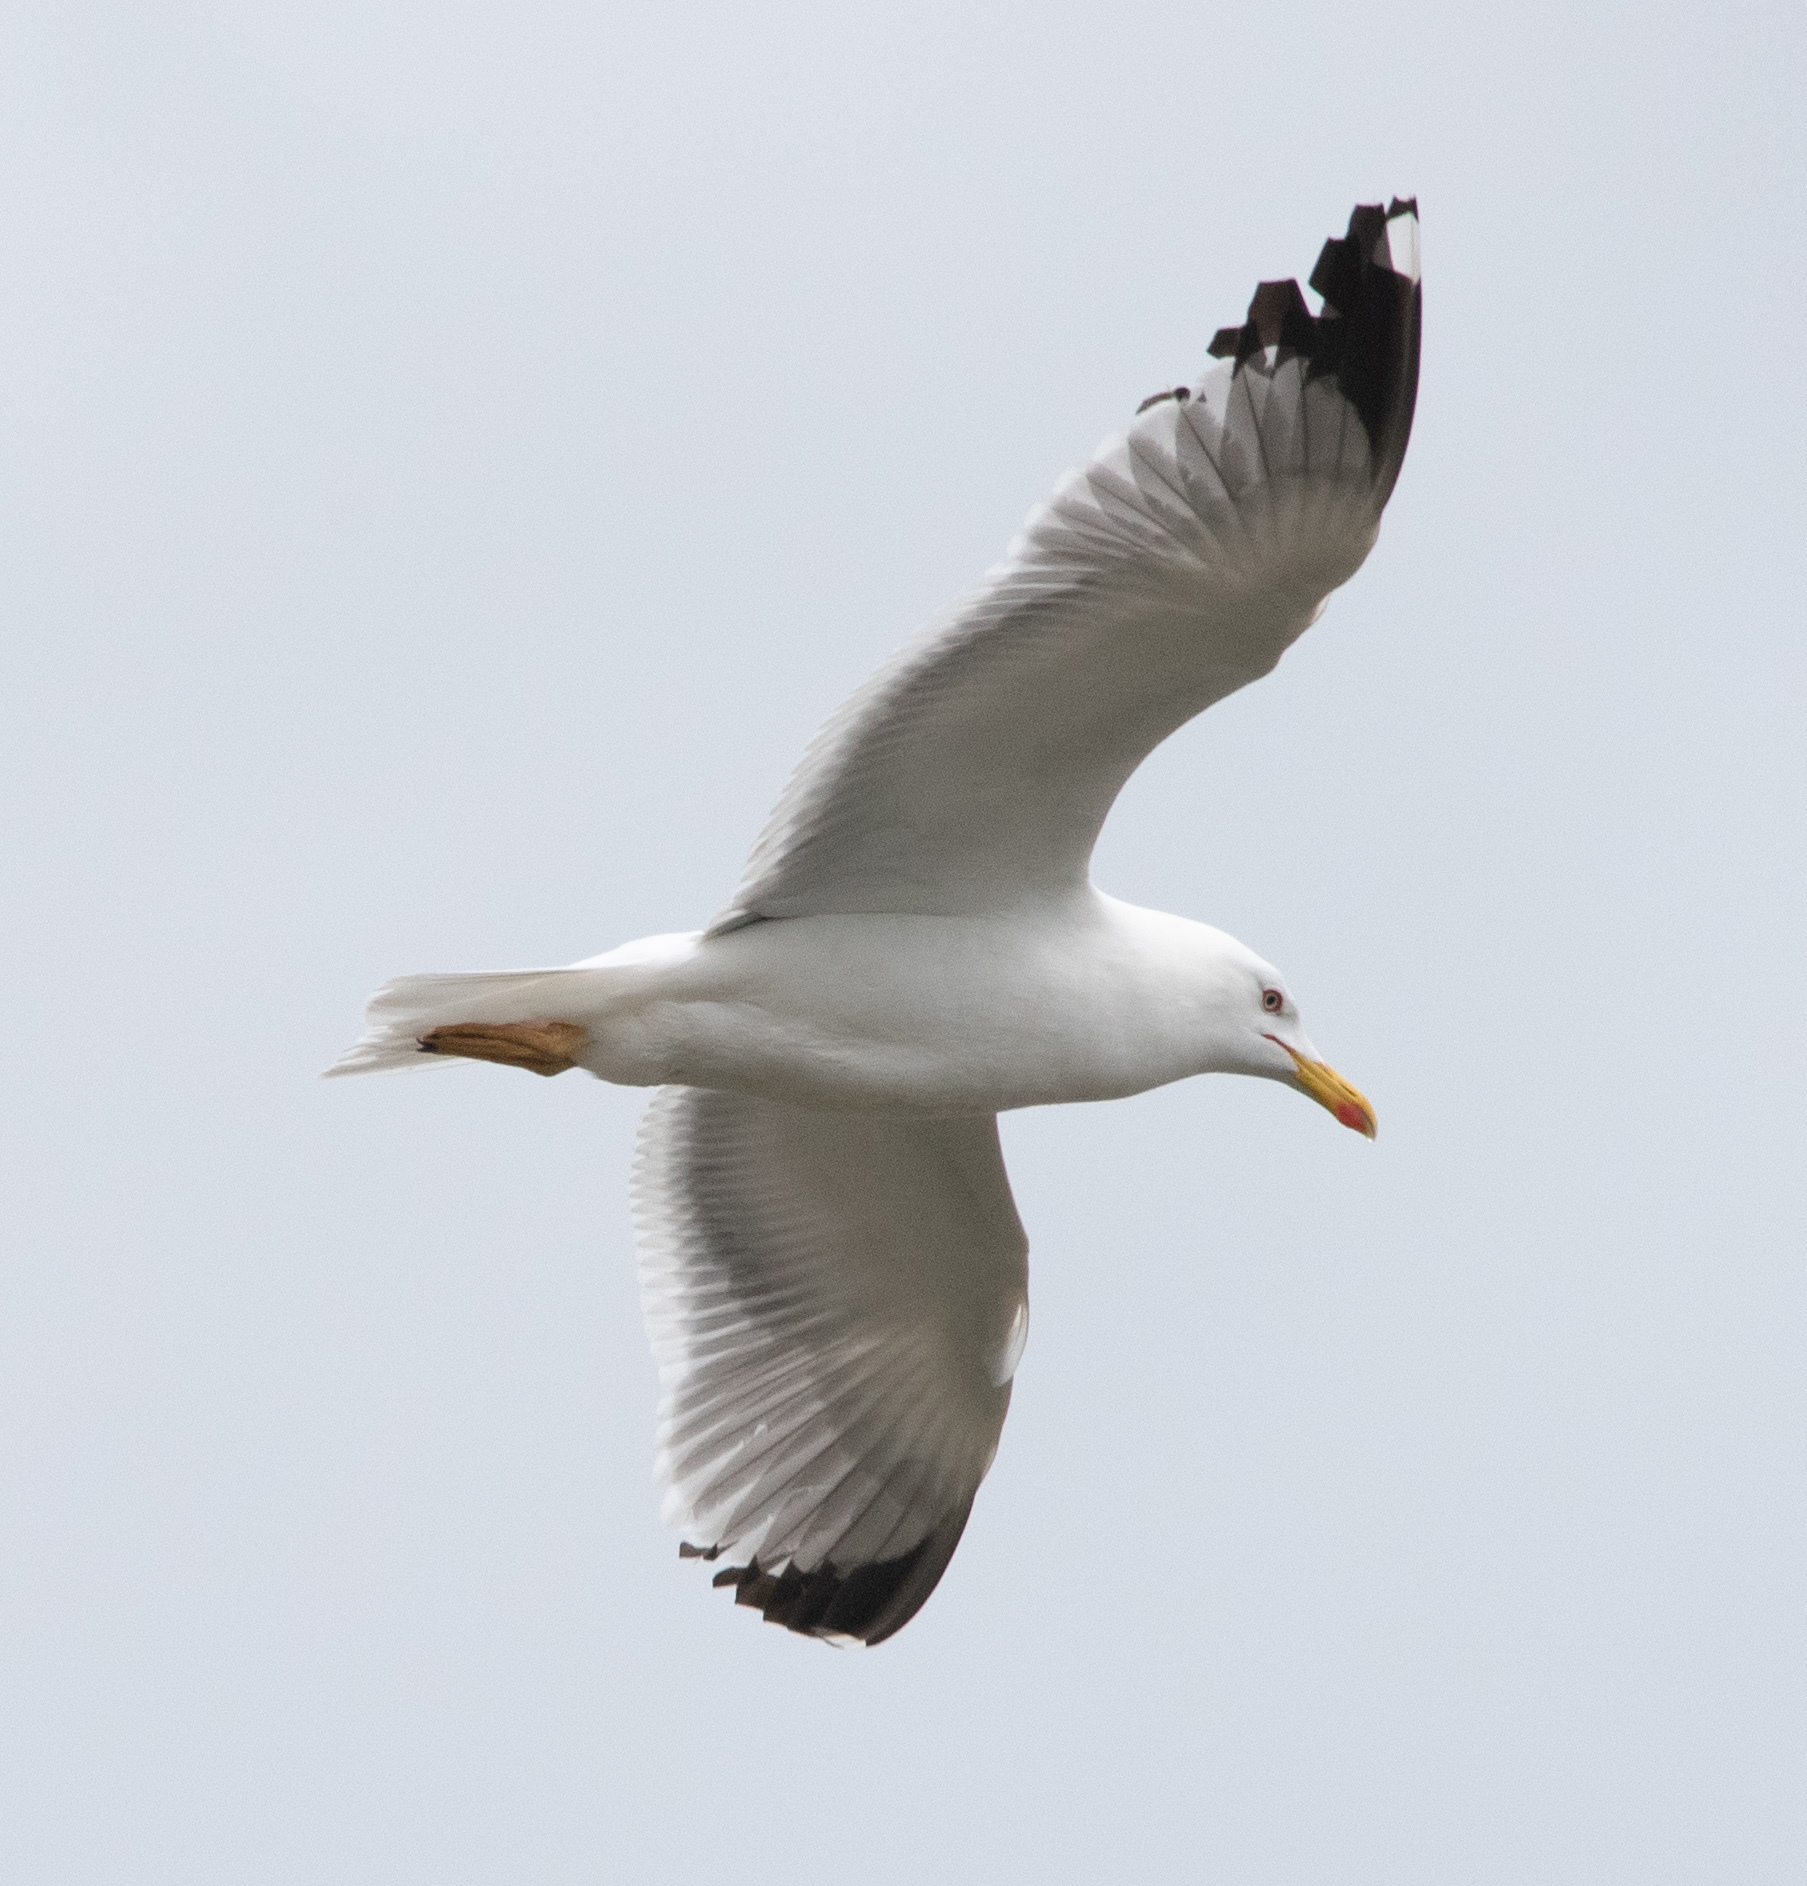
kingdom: Animalia
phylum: Chordata
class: Aves
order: Charadriiformes
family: Laridae
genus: Larus
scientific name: Larus michahellis
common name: Yellow-legged gull
